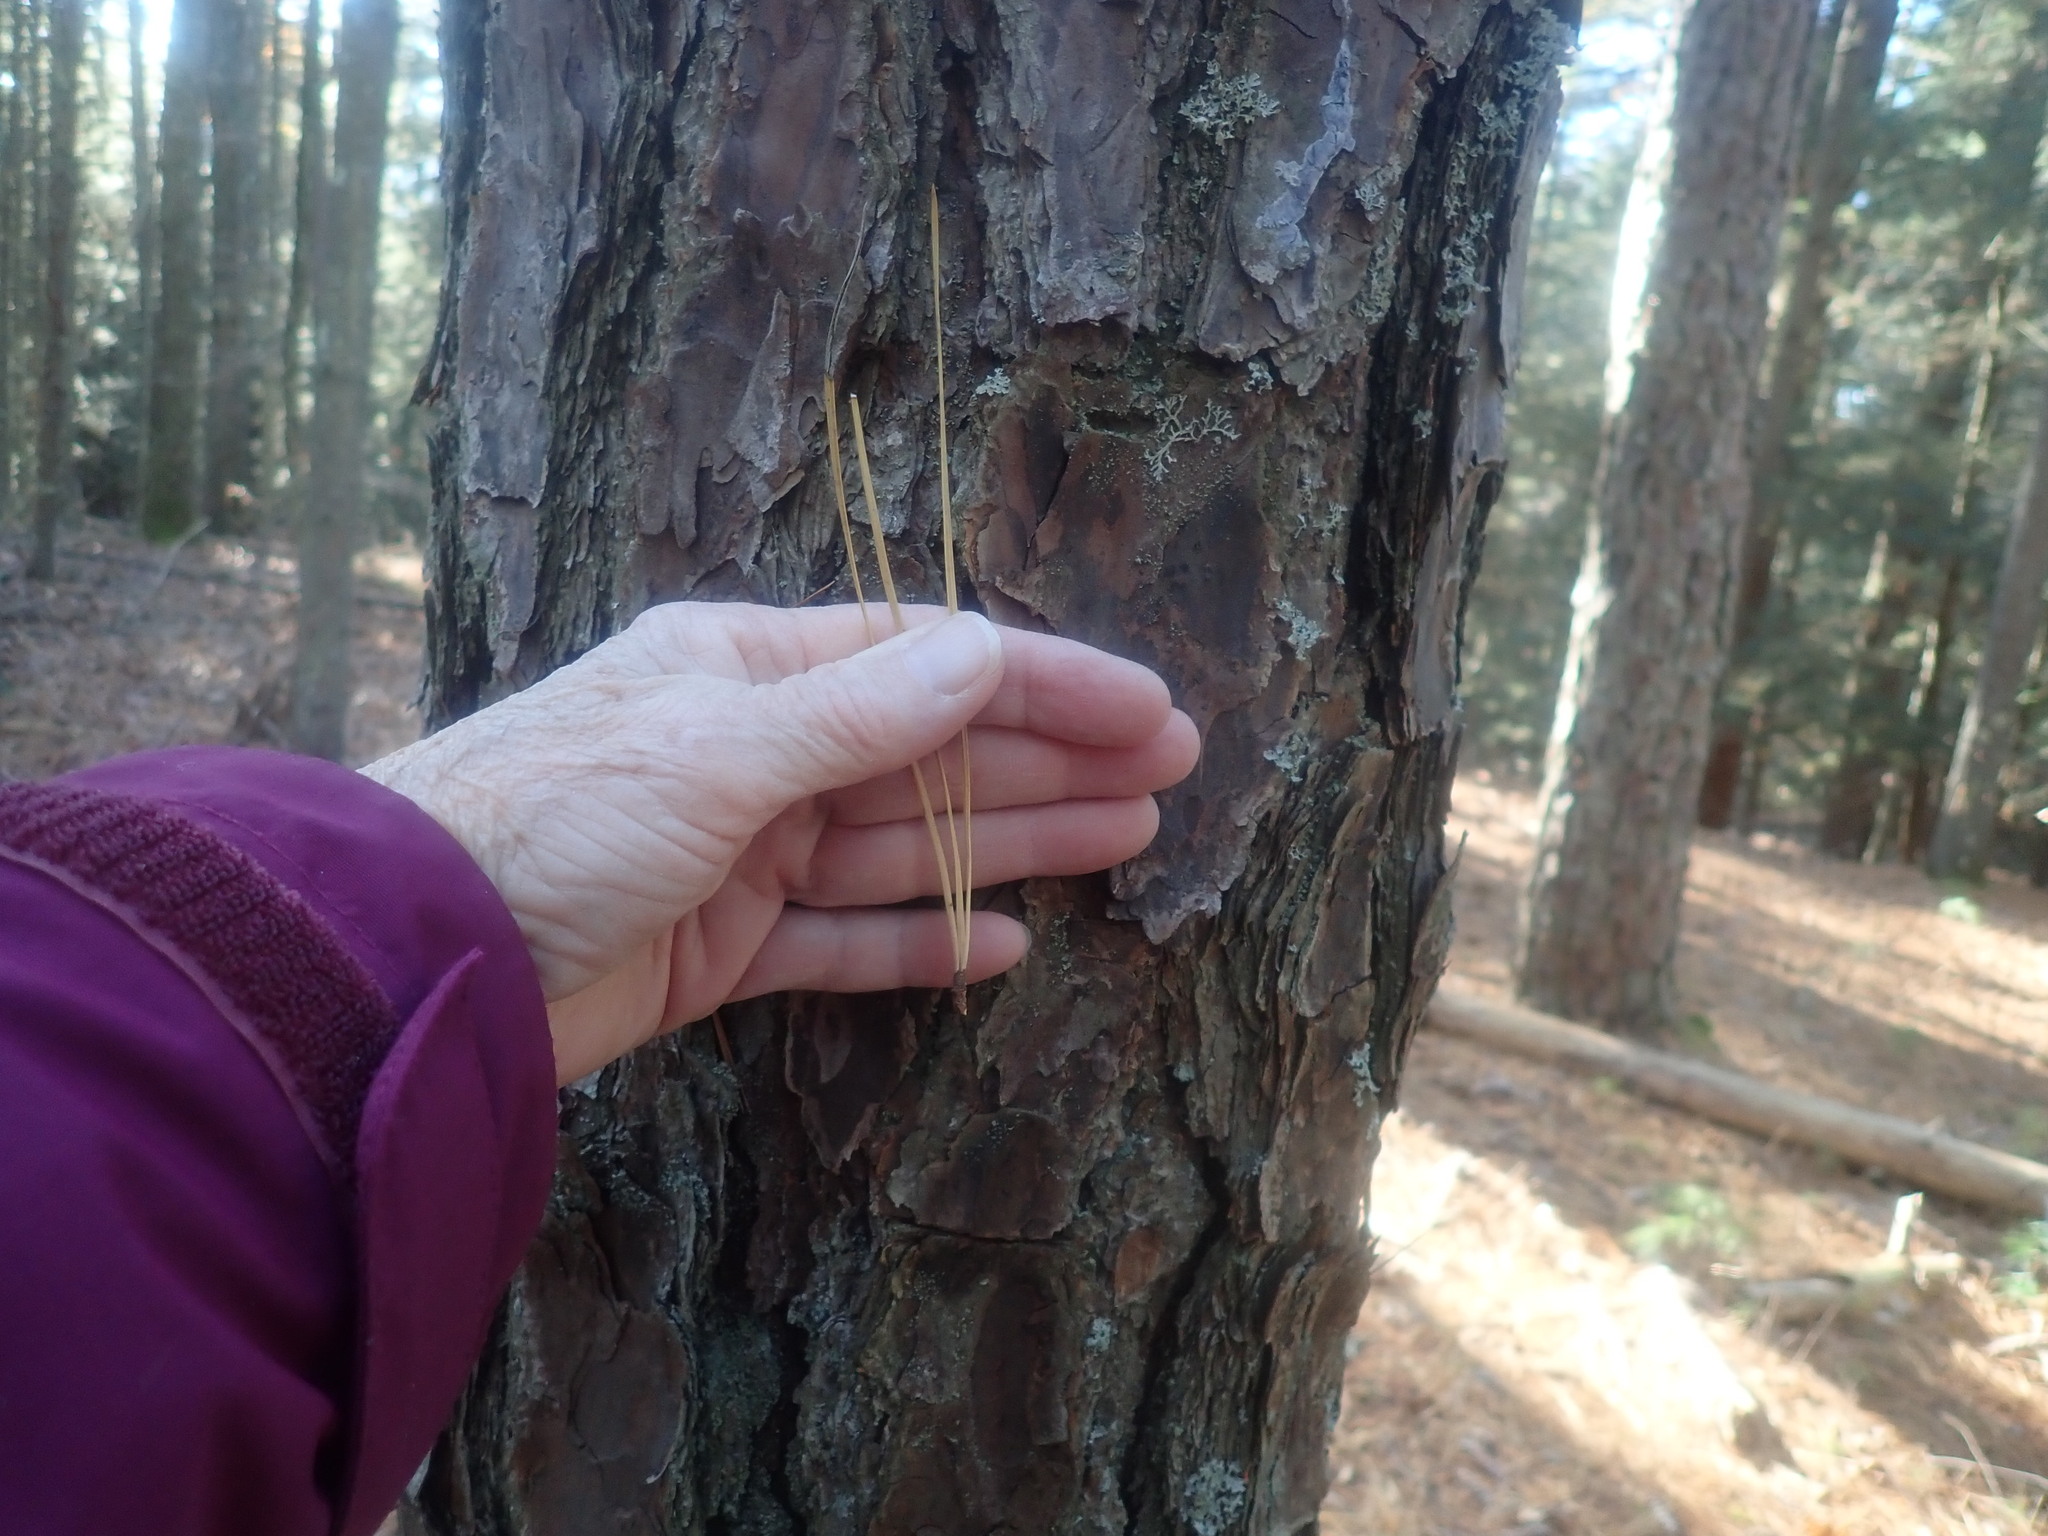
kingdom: Plantae
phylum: Tracheophyta
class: Pinopsida
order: Pinales
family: Pinaceae
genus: Pinus
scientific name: Pinus rigida
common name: Pitch pine
